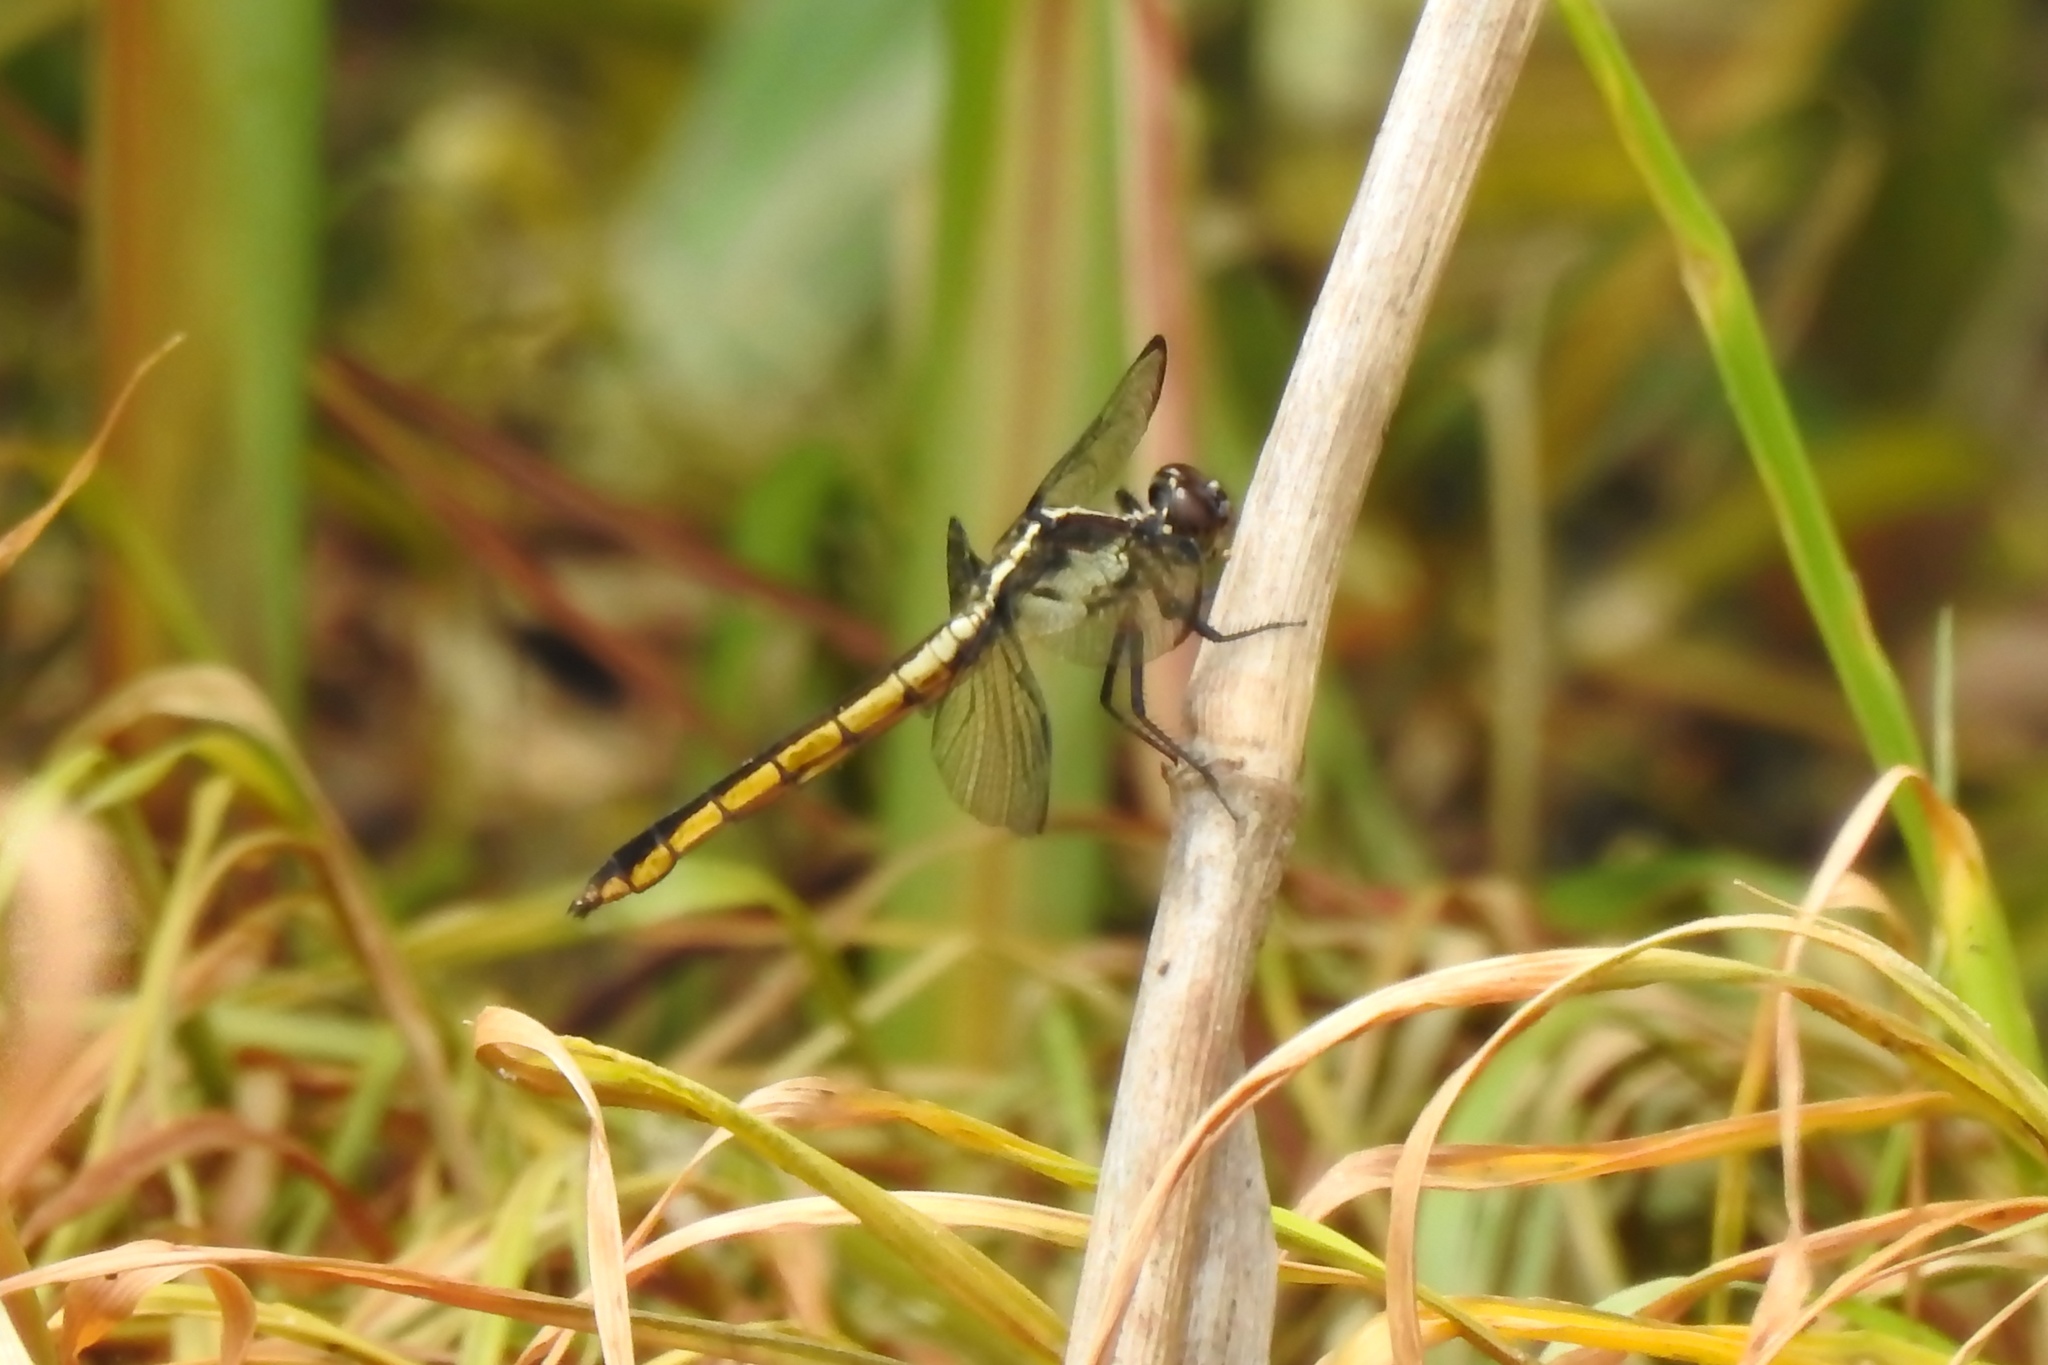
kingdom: Animalia
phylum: Arthropoda
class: Insecta
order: Odonata
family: Libellulidae
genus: Libellula
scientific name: Libellula incesta
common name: Slaty skimmer
